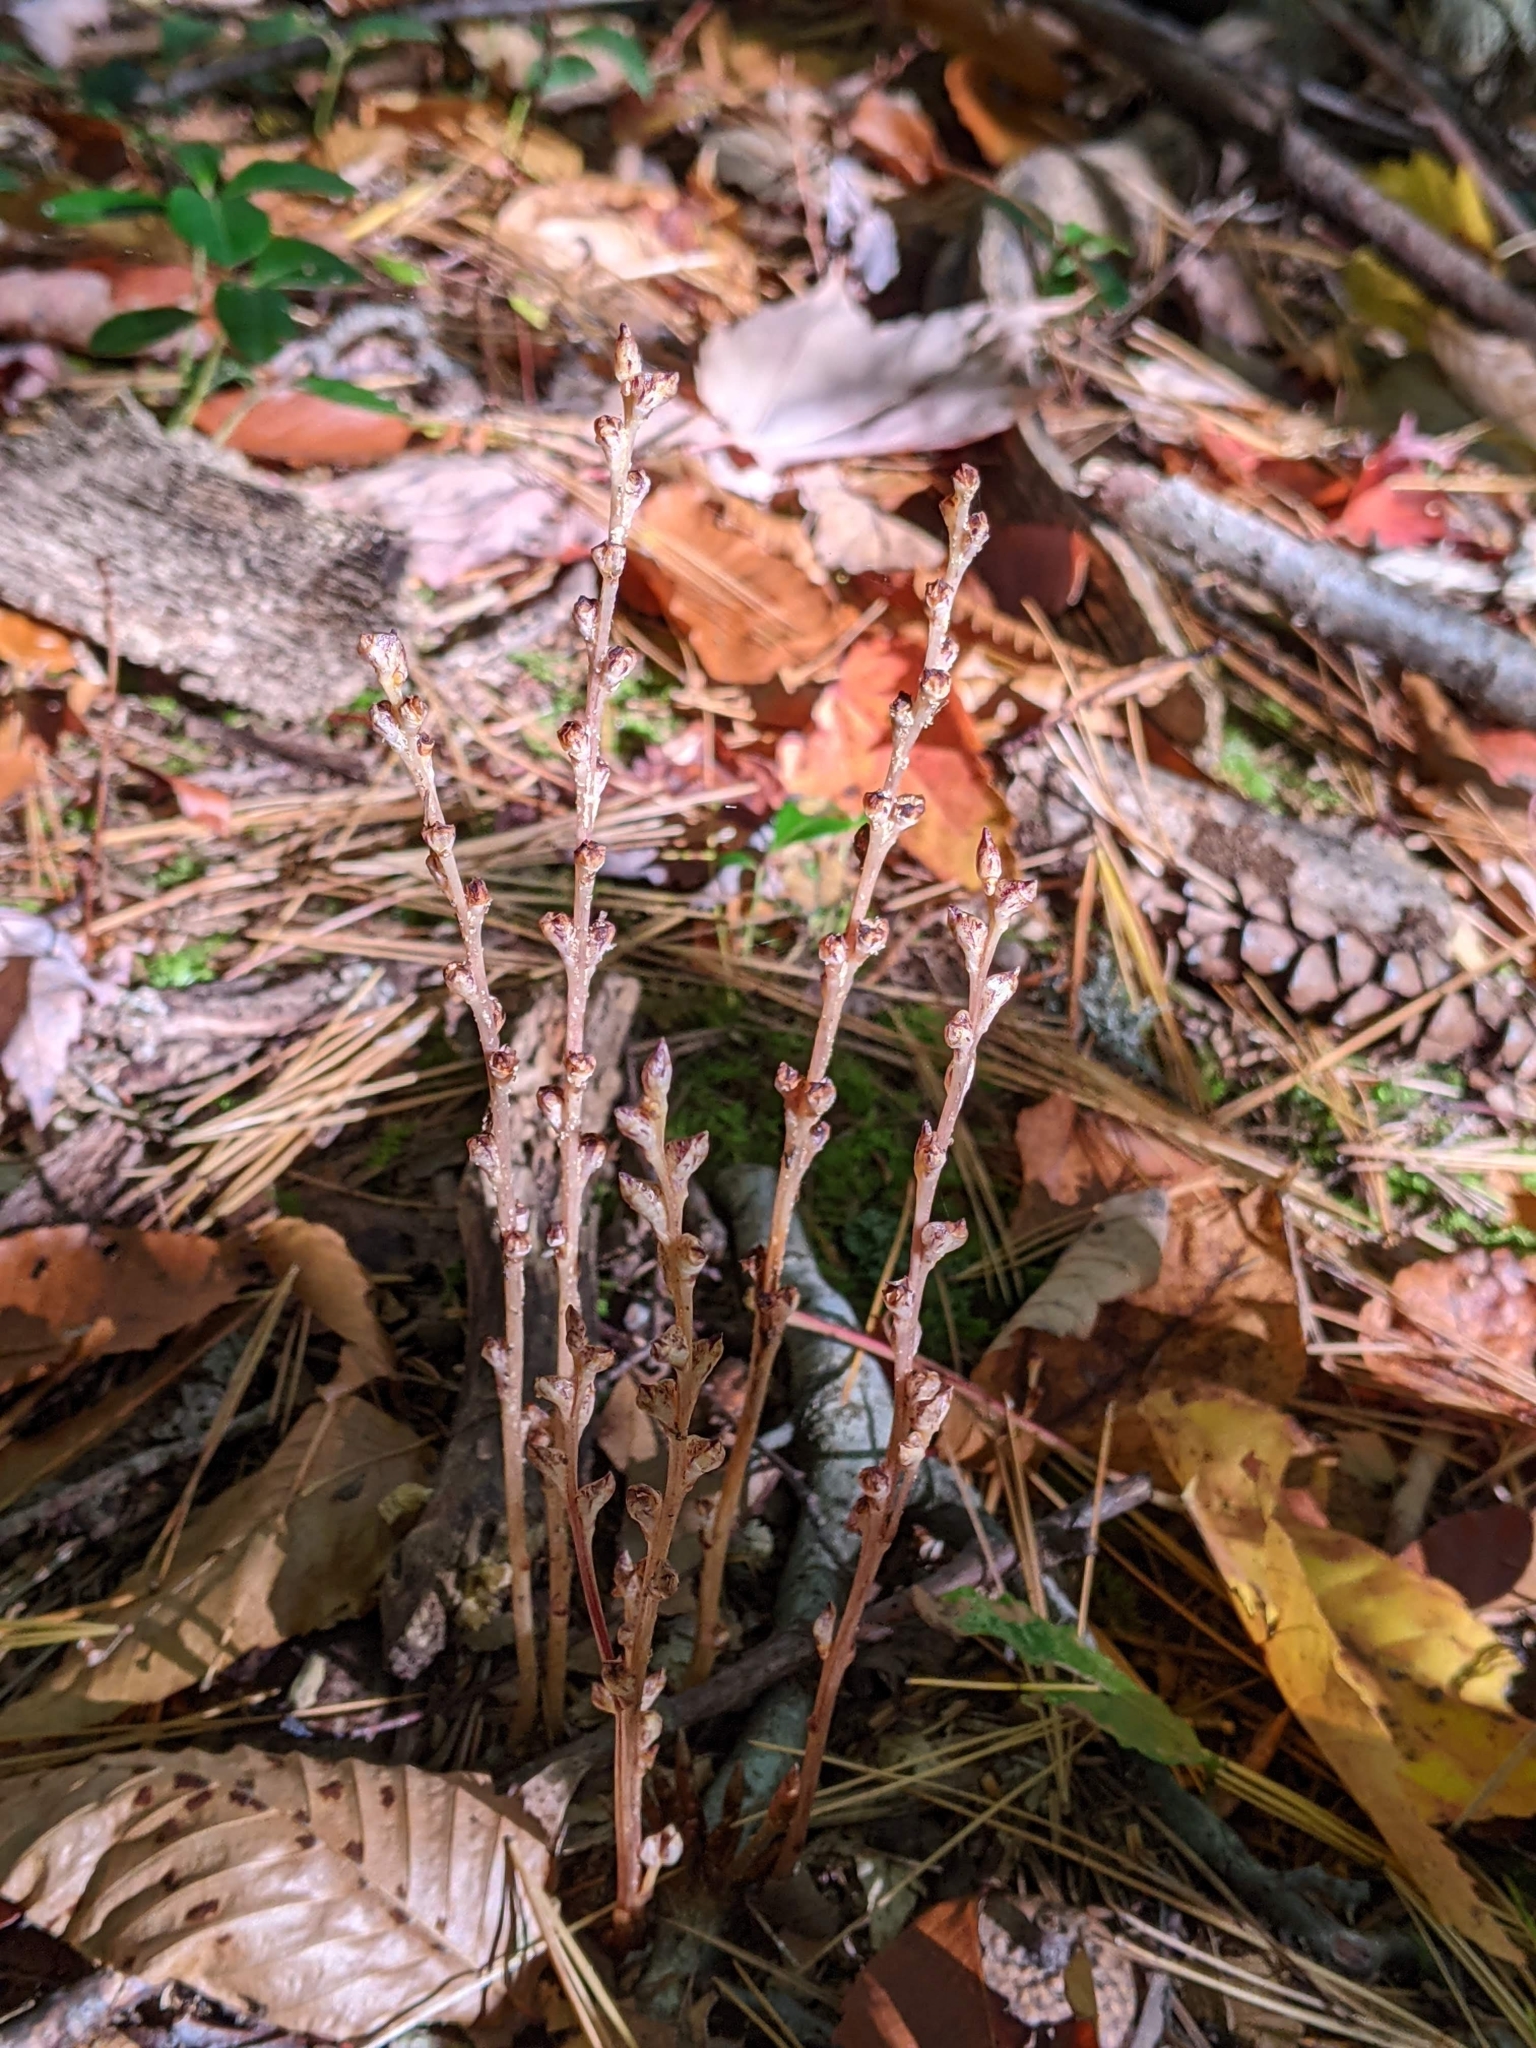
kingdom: Plantae
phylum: Tracheophyta
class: Magnoliopsida
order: Lamiales
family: Orobanchaceae
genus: Epifagus
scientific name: Epifagus virginiana
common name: Beechdrops
